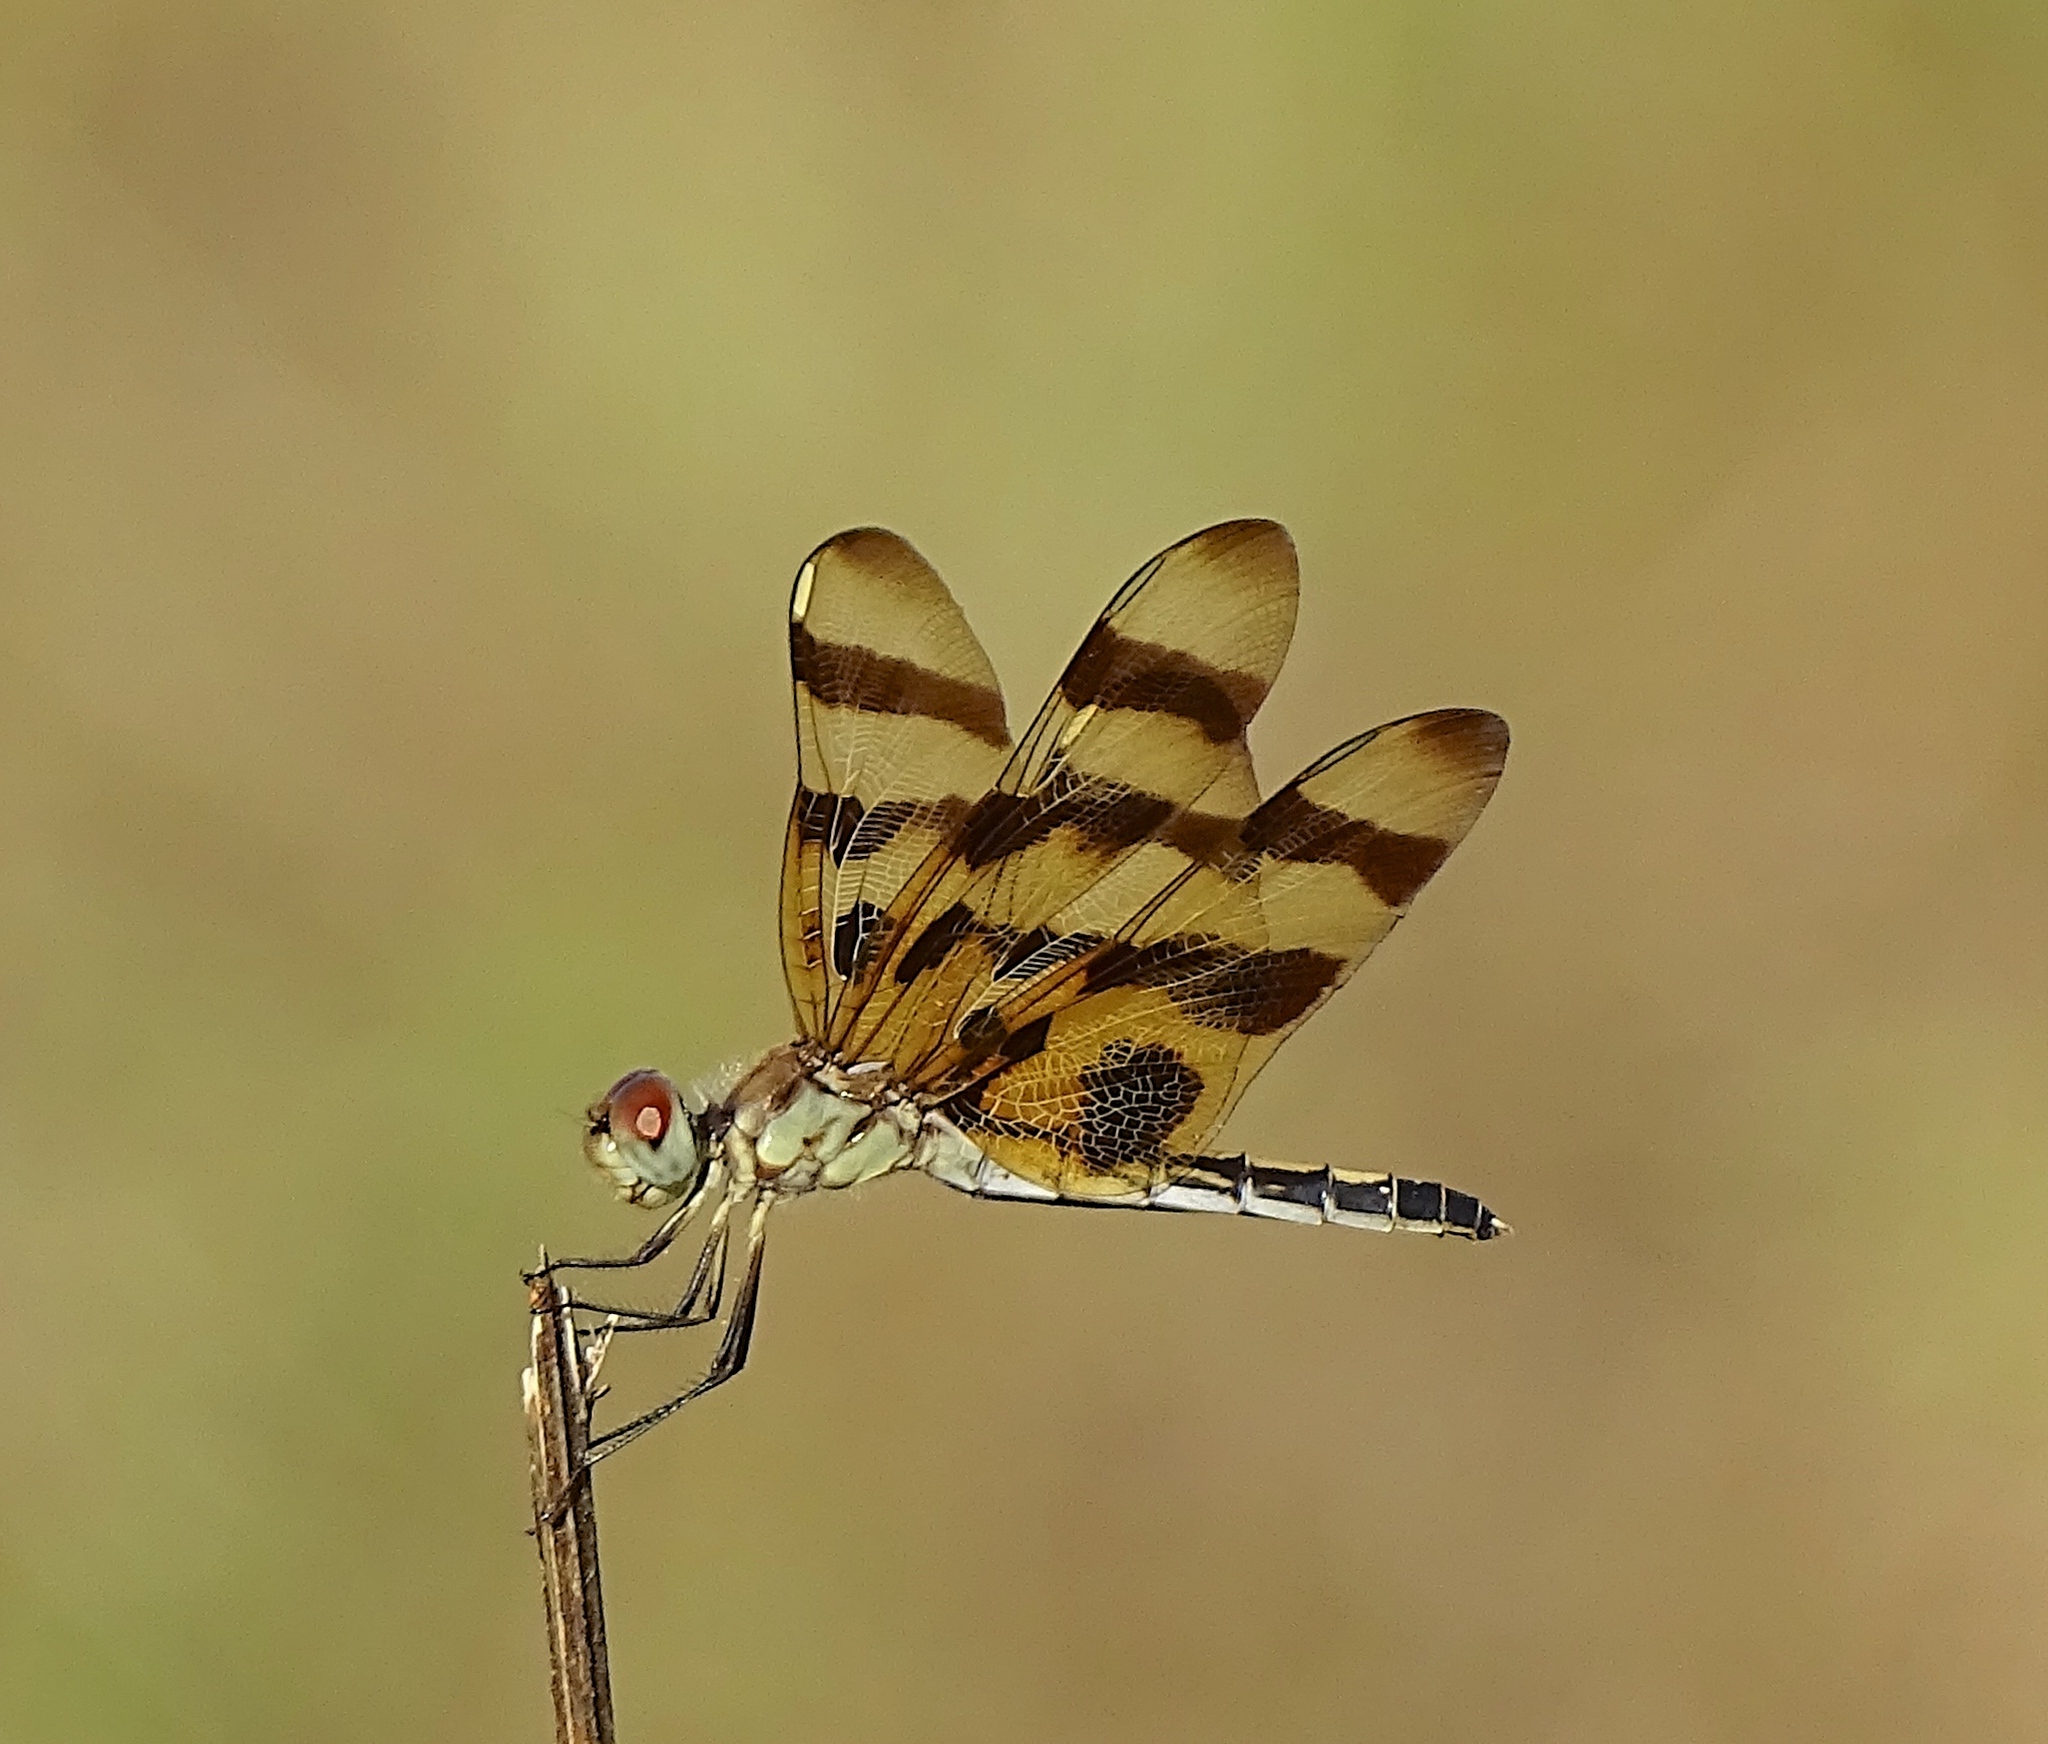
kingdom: Animalia
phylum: Arthropoda
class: Insecta
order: Odonata
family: Libellulidae
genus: Celithemis
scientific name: Celithemis eponina
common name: Halloween pennant
